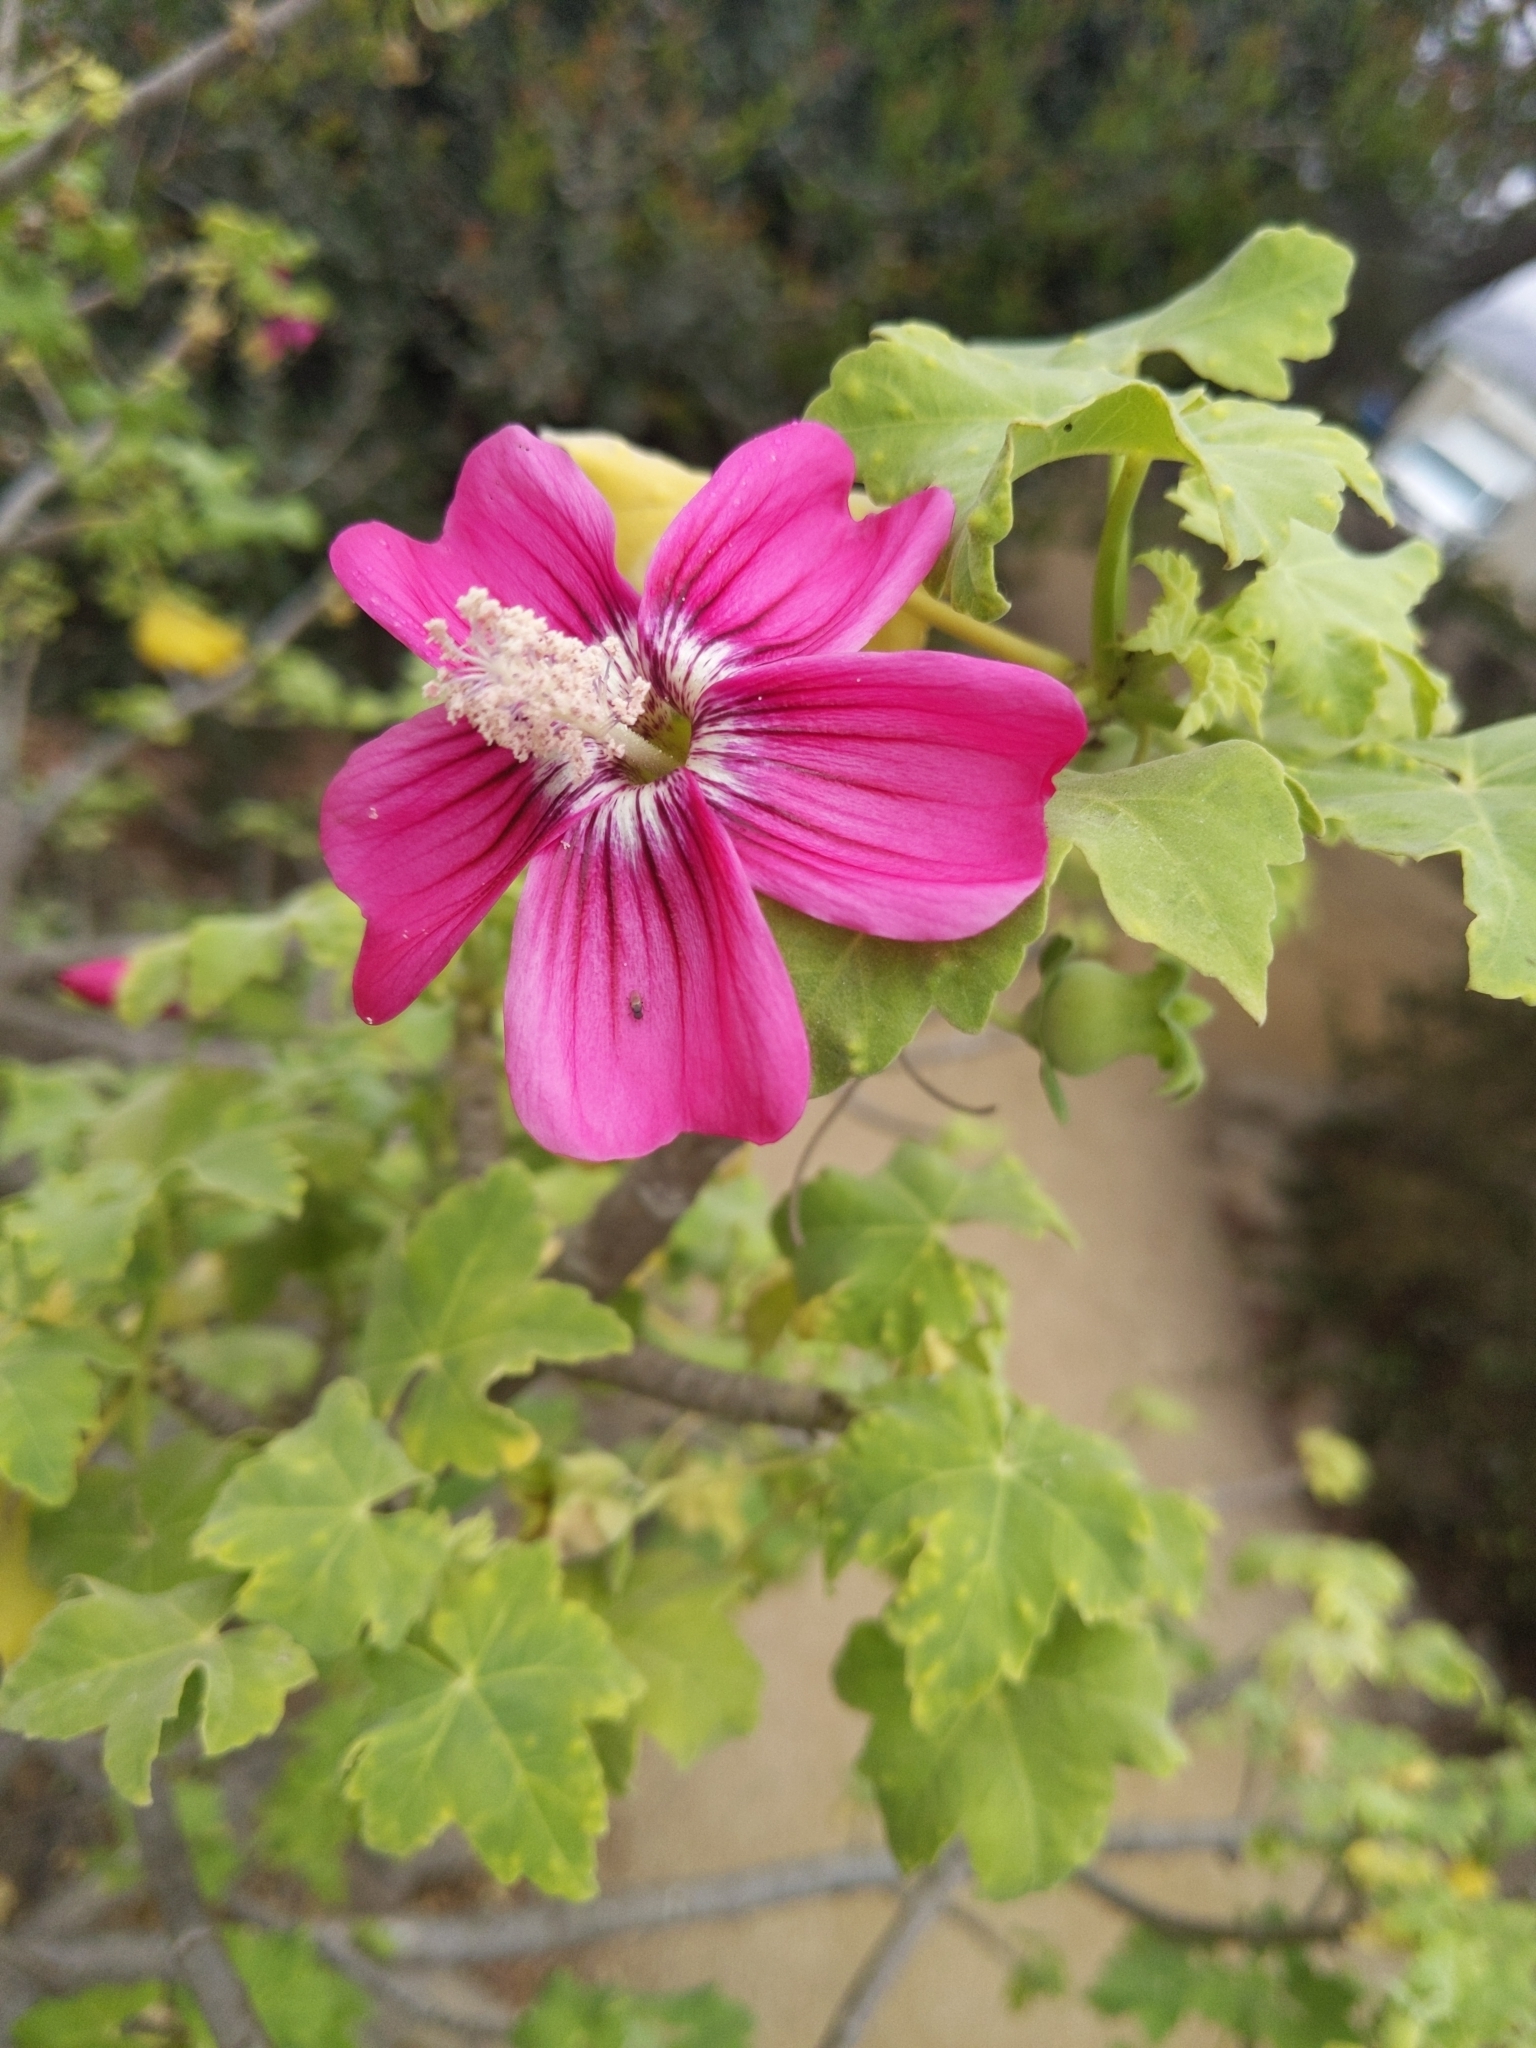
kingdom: Plantae
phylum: Tracheophyta
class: Magnoliopsida
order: Malvales
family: Malvaceae
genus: Malva
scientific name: Malva assurgentiflora
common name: Island mallow
